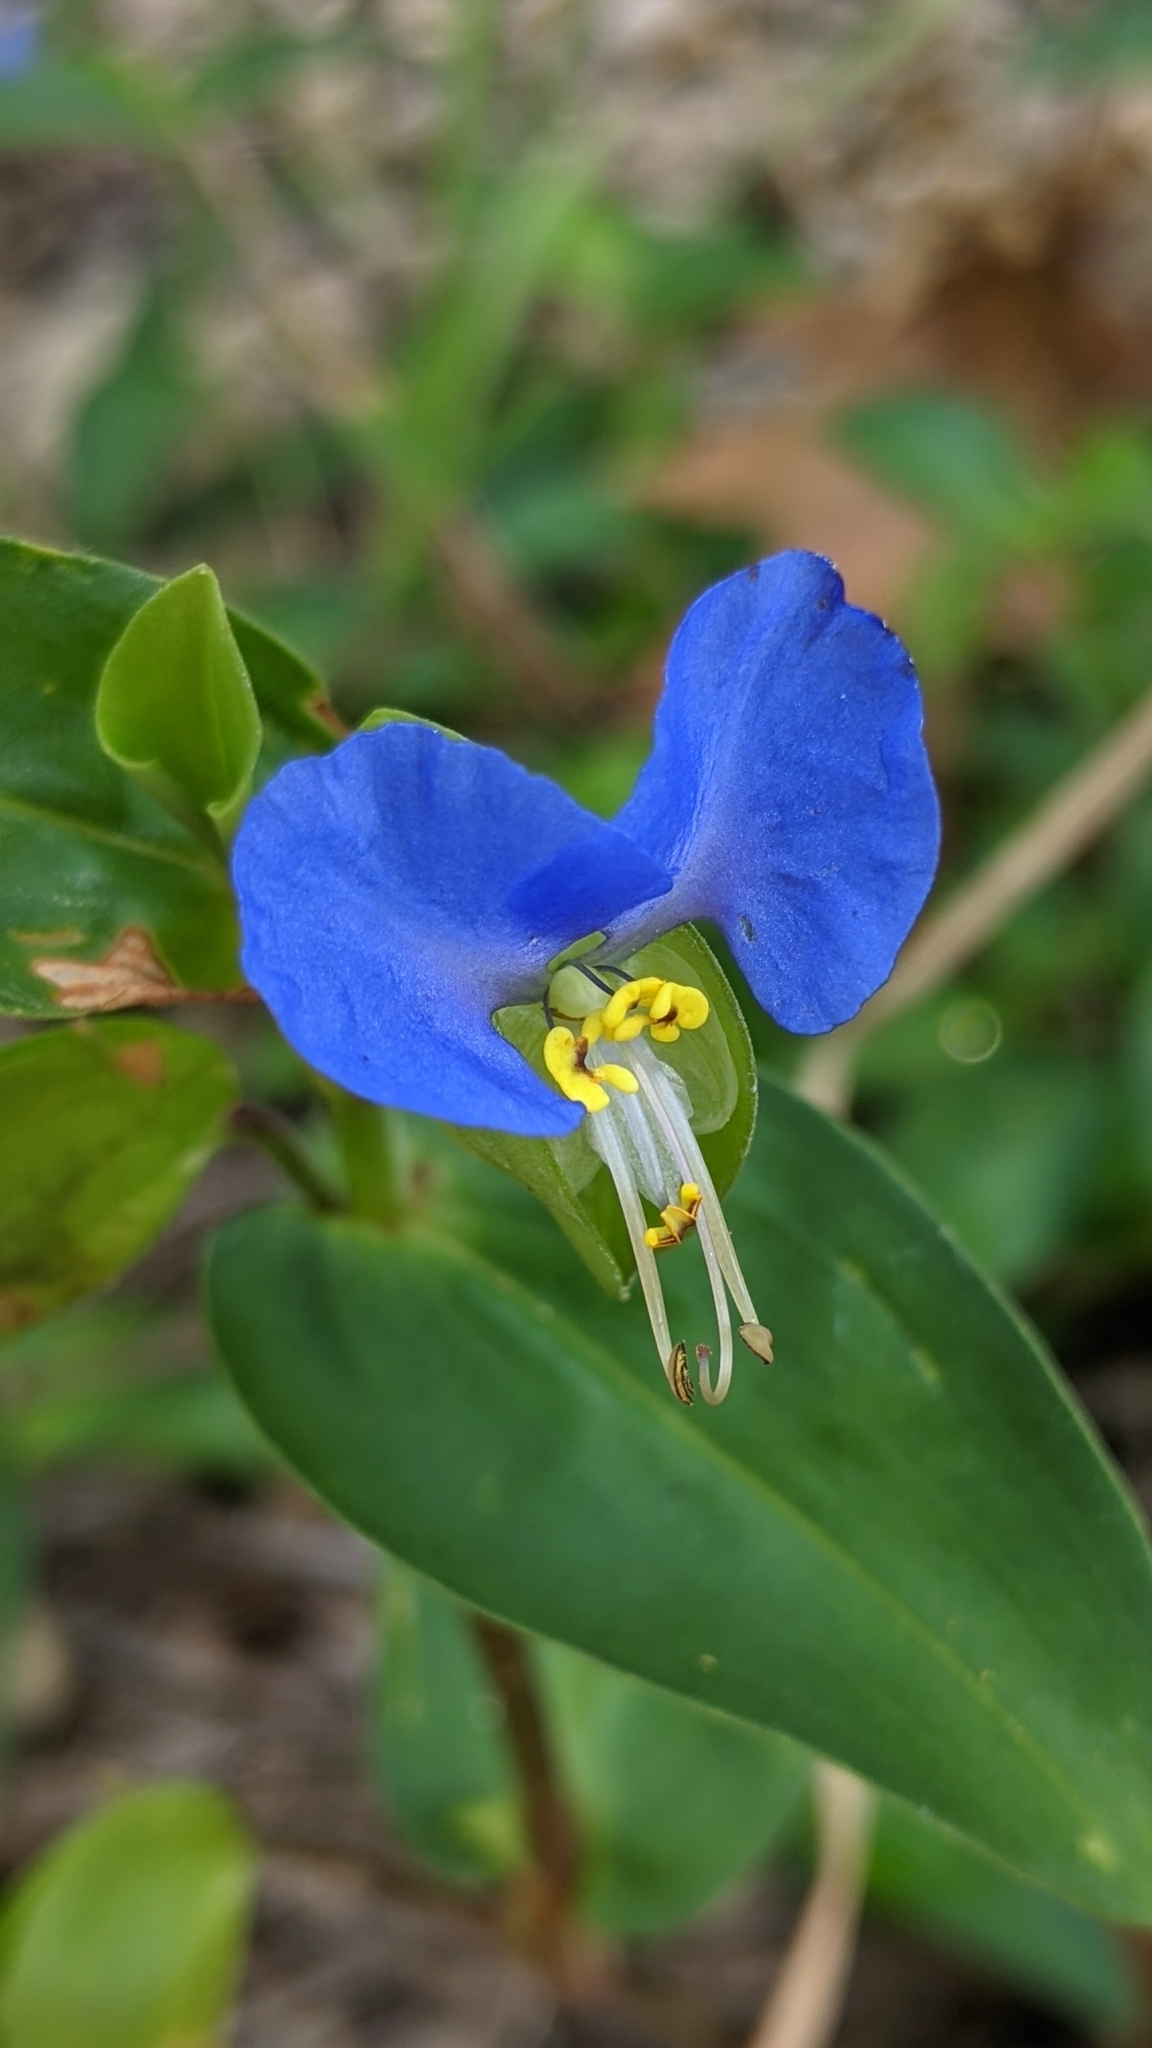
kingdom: Plantae
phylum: Tracheophyta
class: Liliopsida
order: Commelinales
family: Commelinaceae
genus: Commelina
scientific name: Commelina communis
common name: Asiatic dayflower
